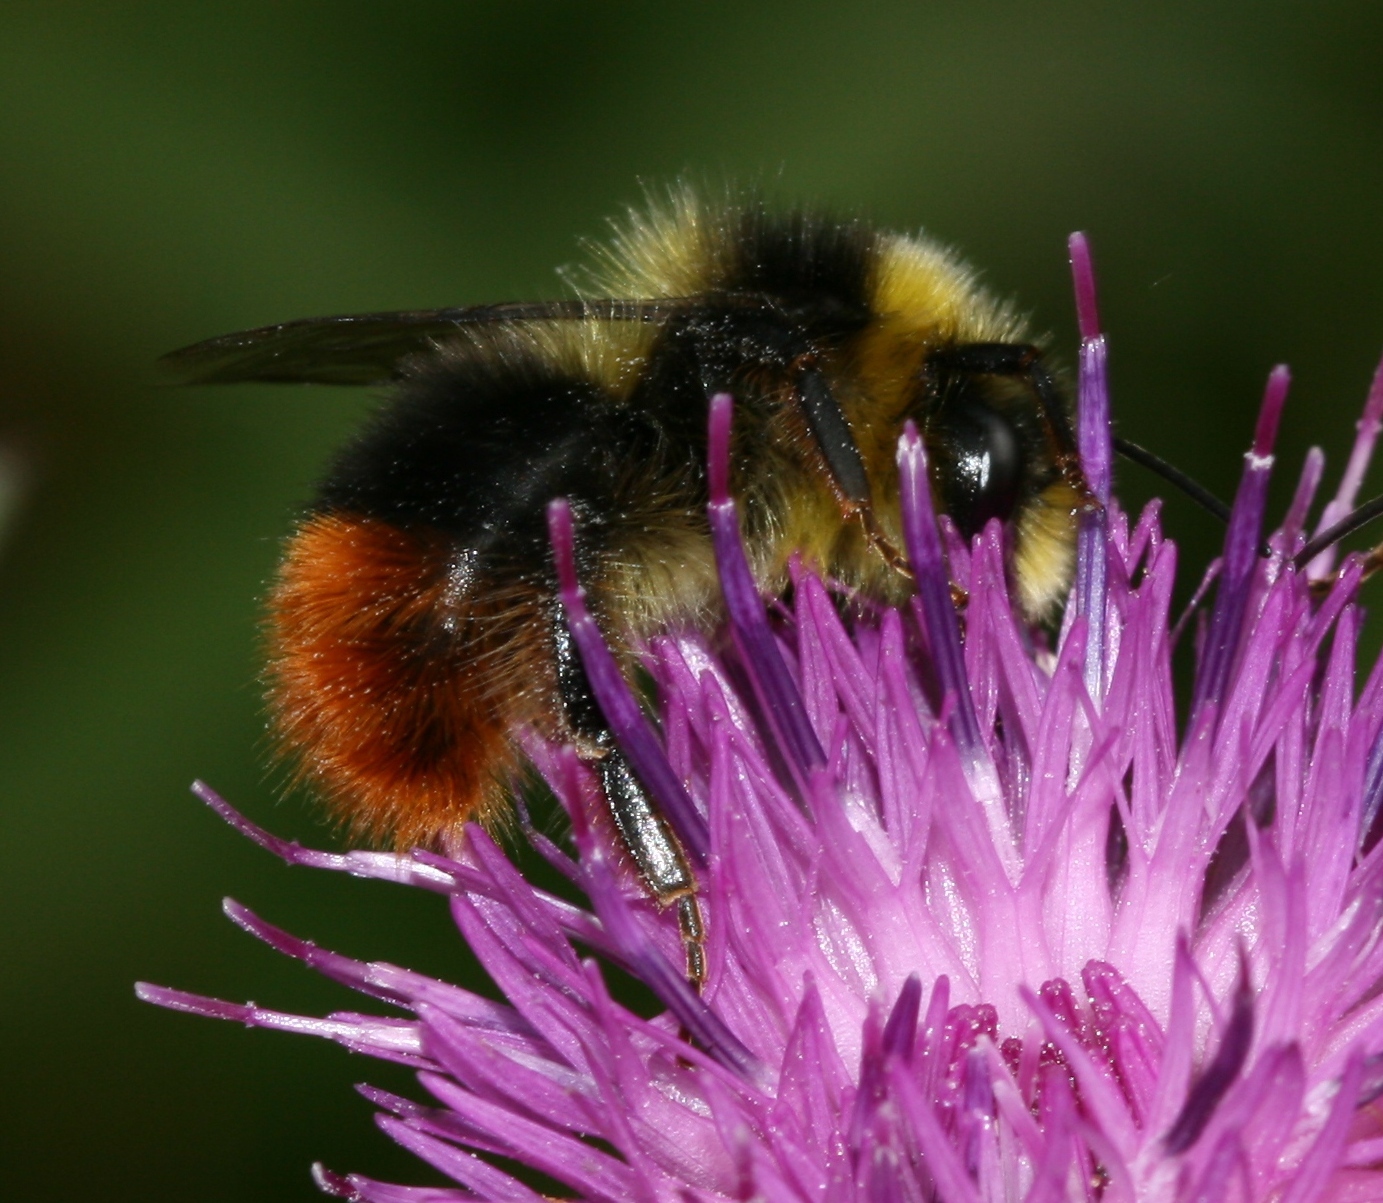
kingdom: Animalia
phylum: Arthropoda
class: Insecta
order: Hymenoptera
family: Apidae
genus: Bombus
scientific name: Bombus lapidarius
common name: Large red-tailed humble-bee
